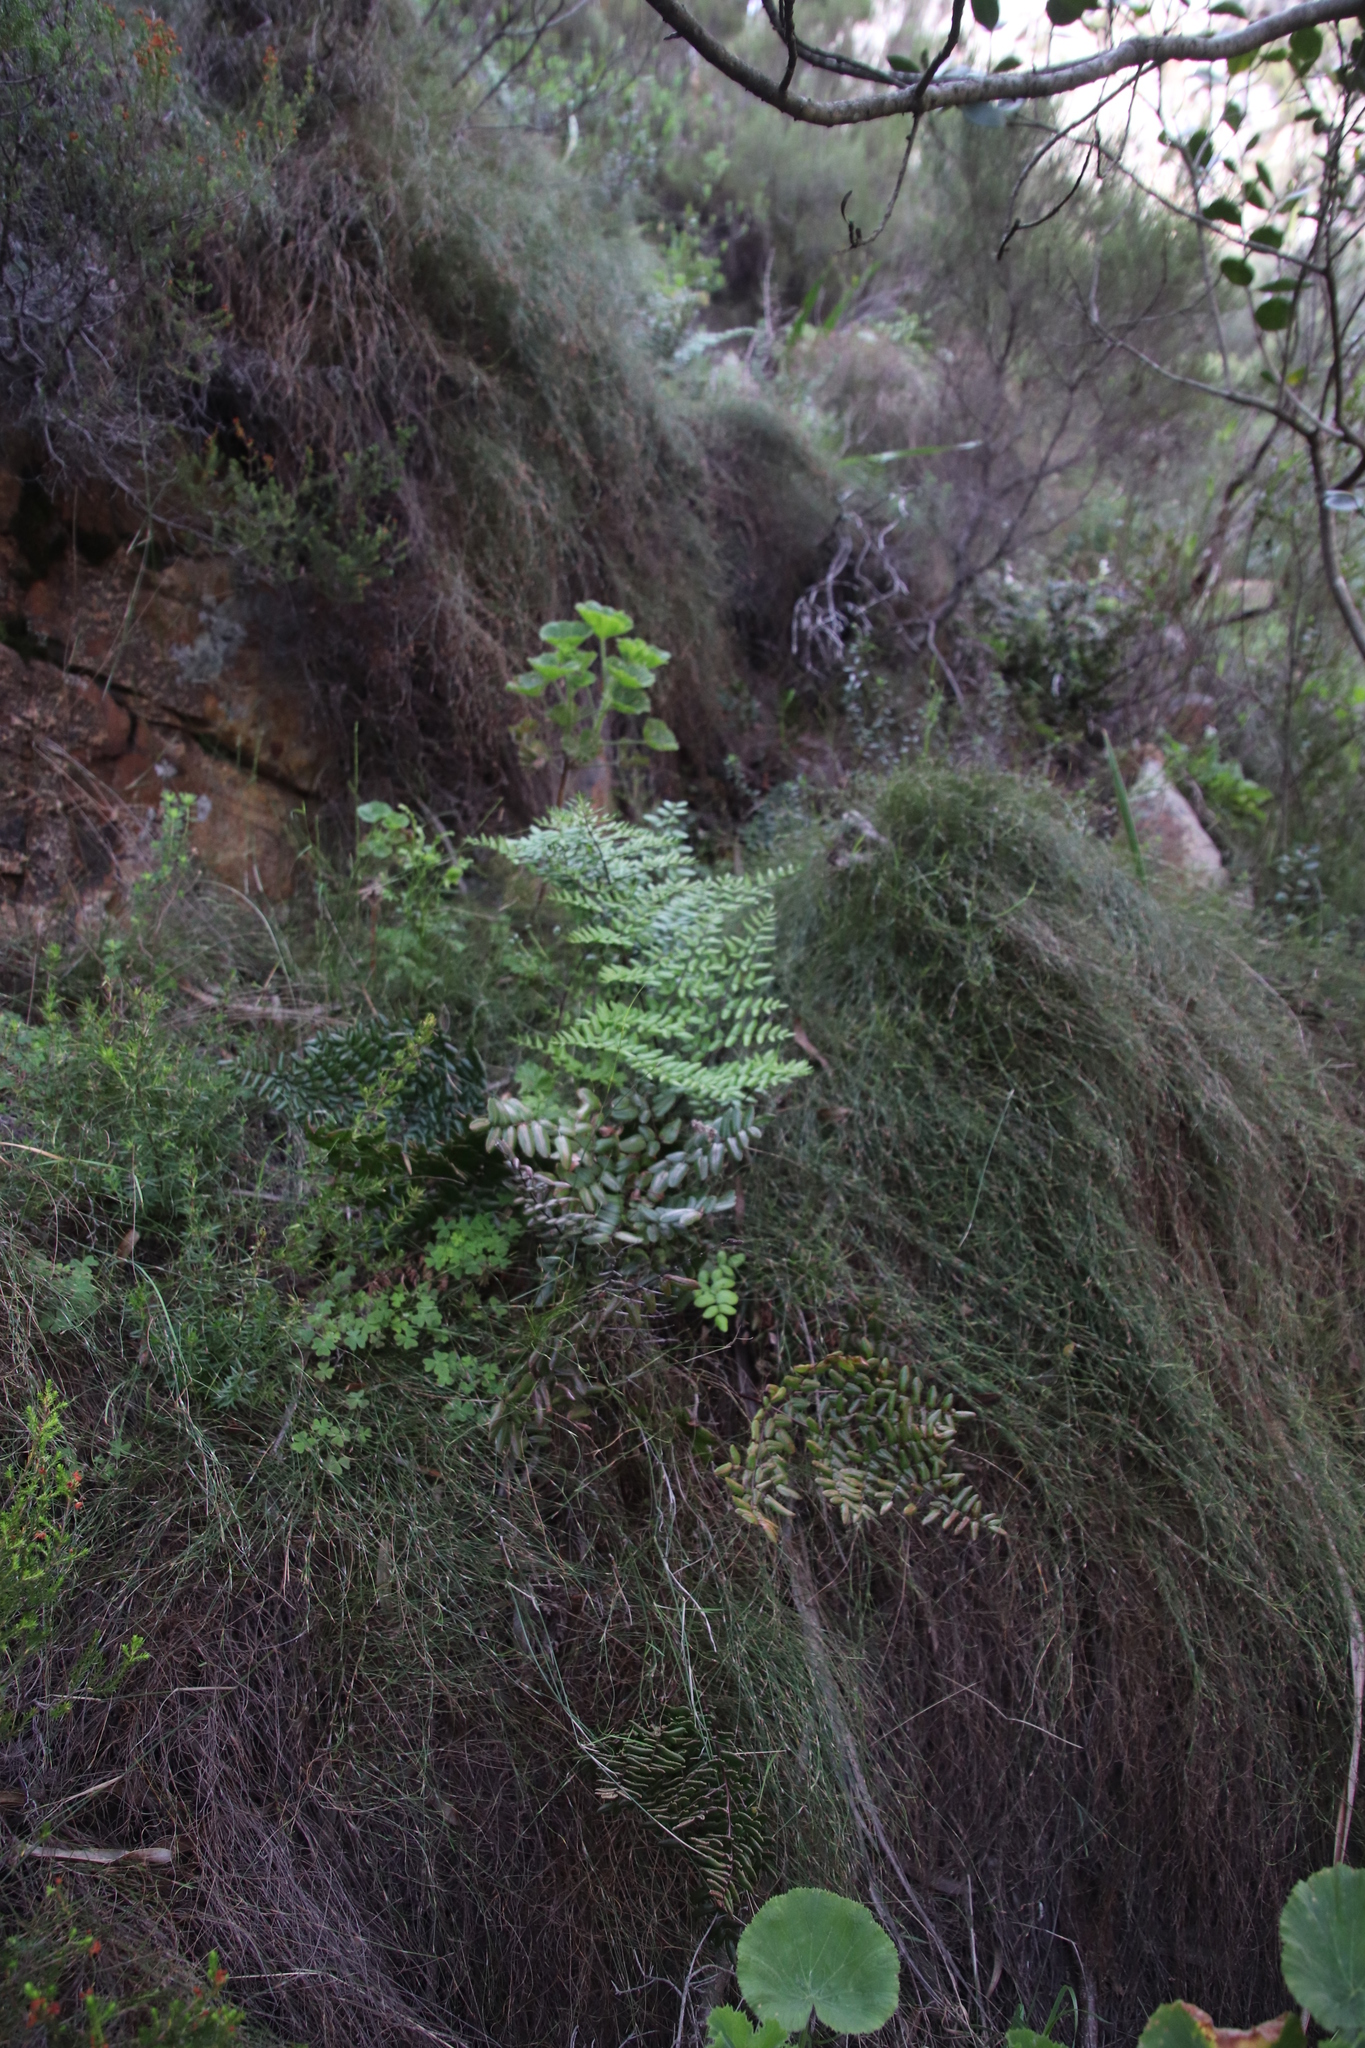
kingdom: Plantae
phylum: Tracheophyta
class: Polypodiopsida
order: Polypodiales
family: Pteridaceae
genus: Pellaea
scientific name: Pellaea pteroides
